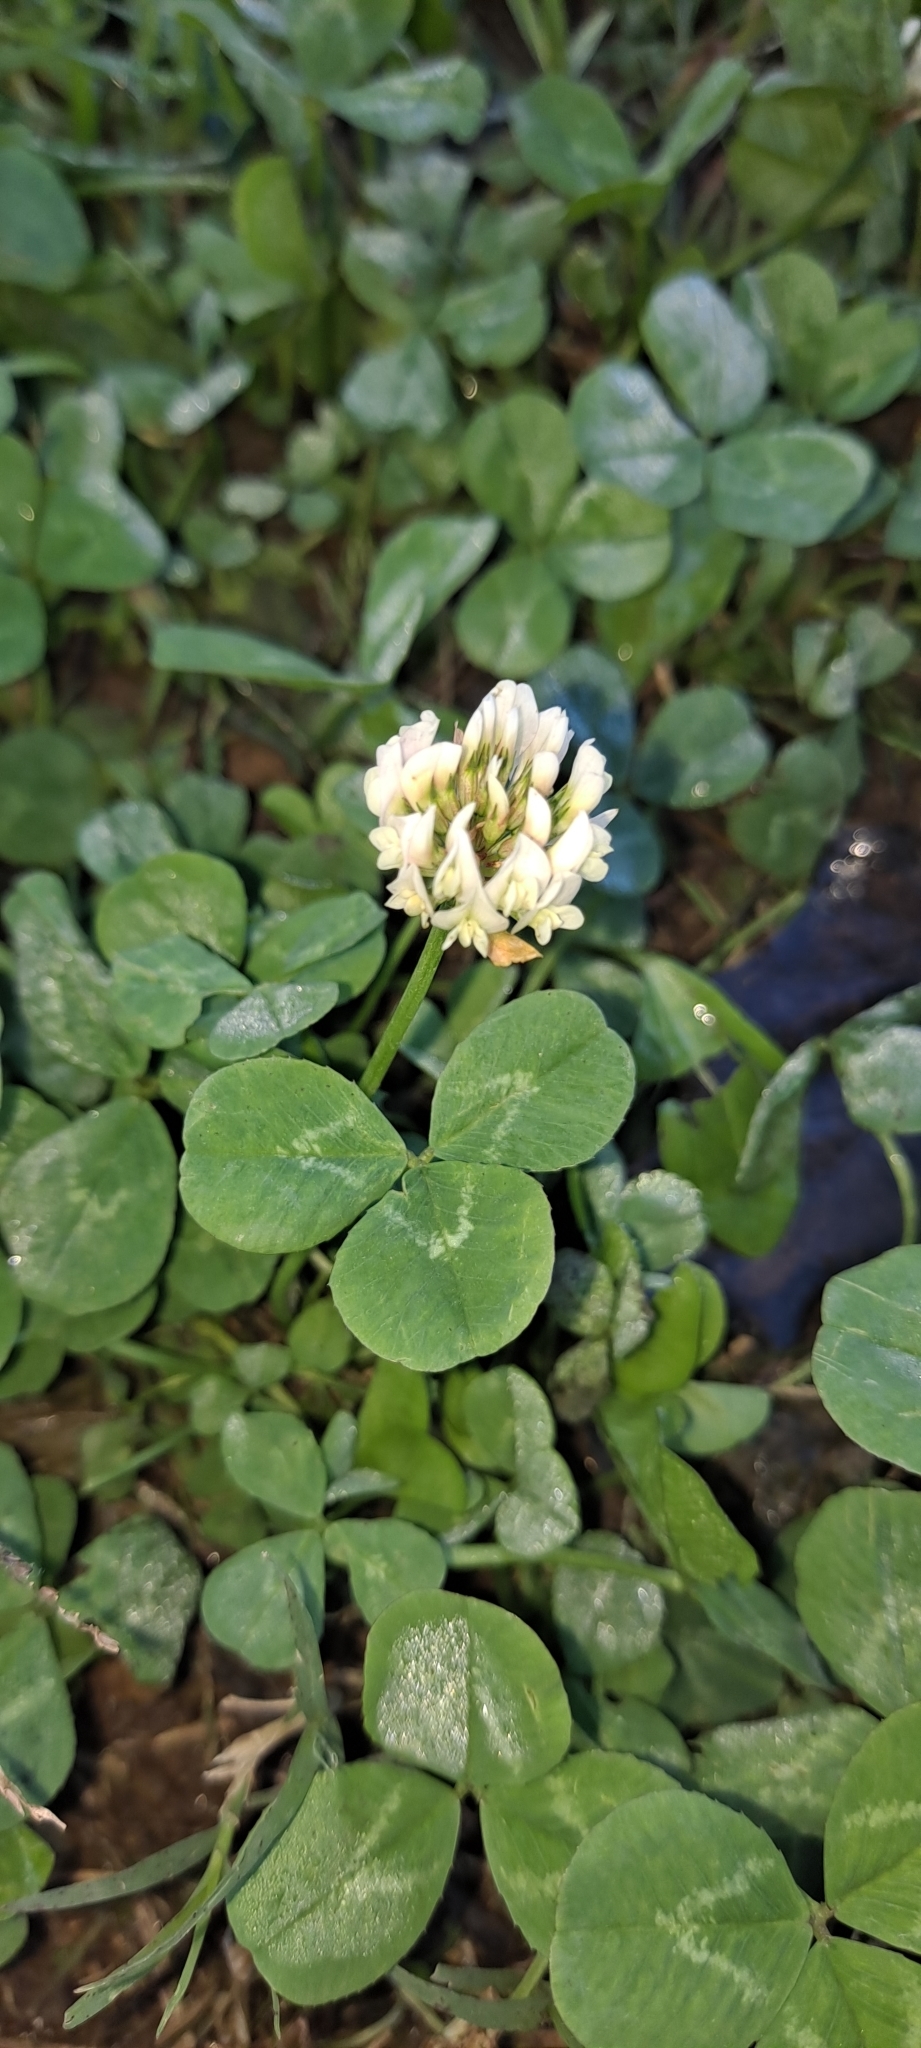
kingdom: Plantae
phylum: Tracheophyta
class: Magnoliopsida
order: Fabales
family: Fabaceae
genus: Trifolium
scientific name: Trifolium repens
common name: White clover
